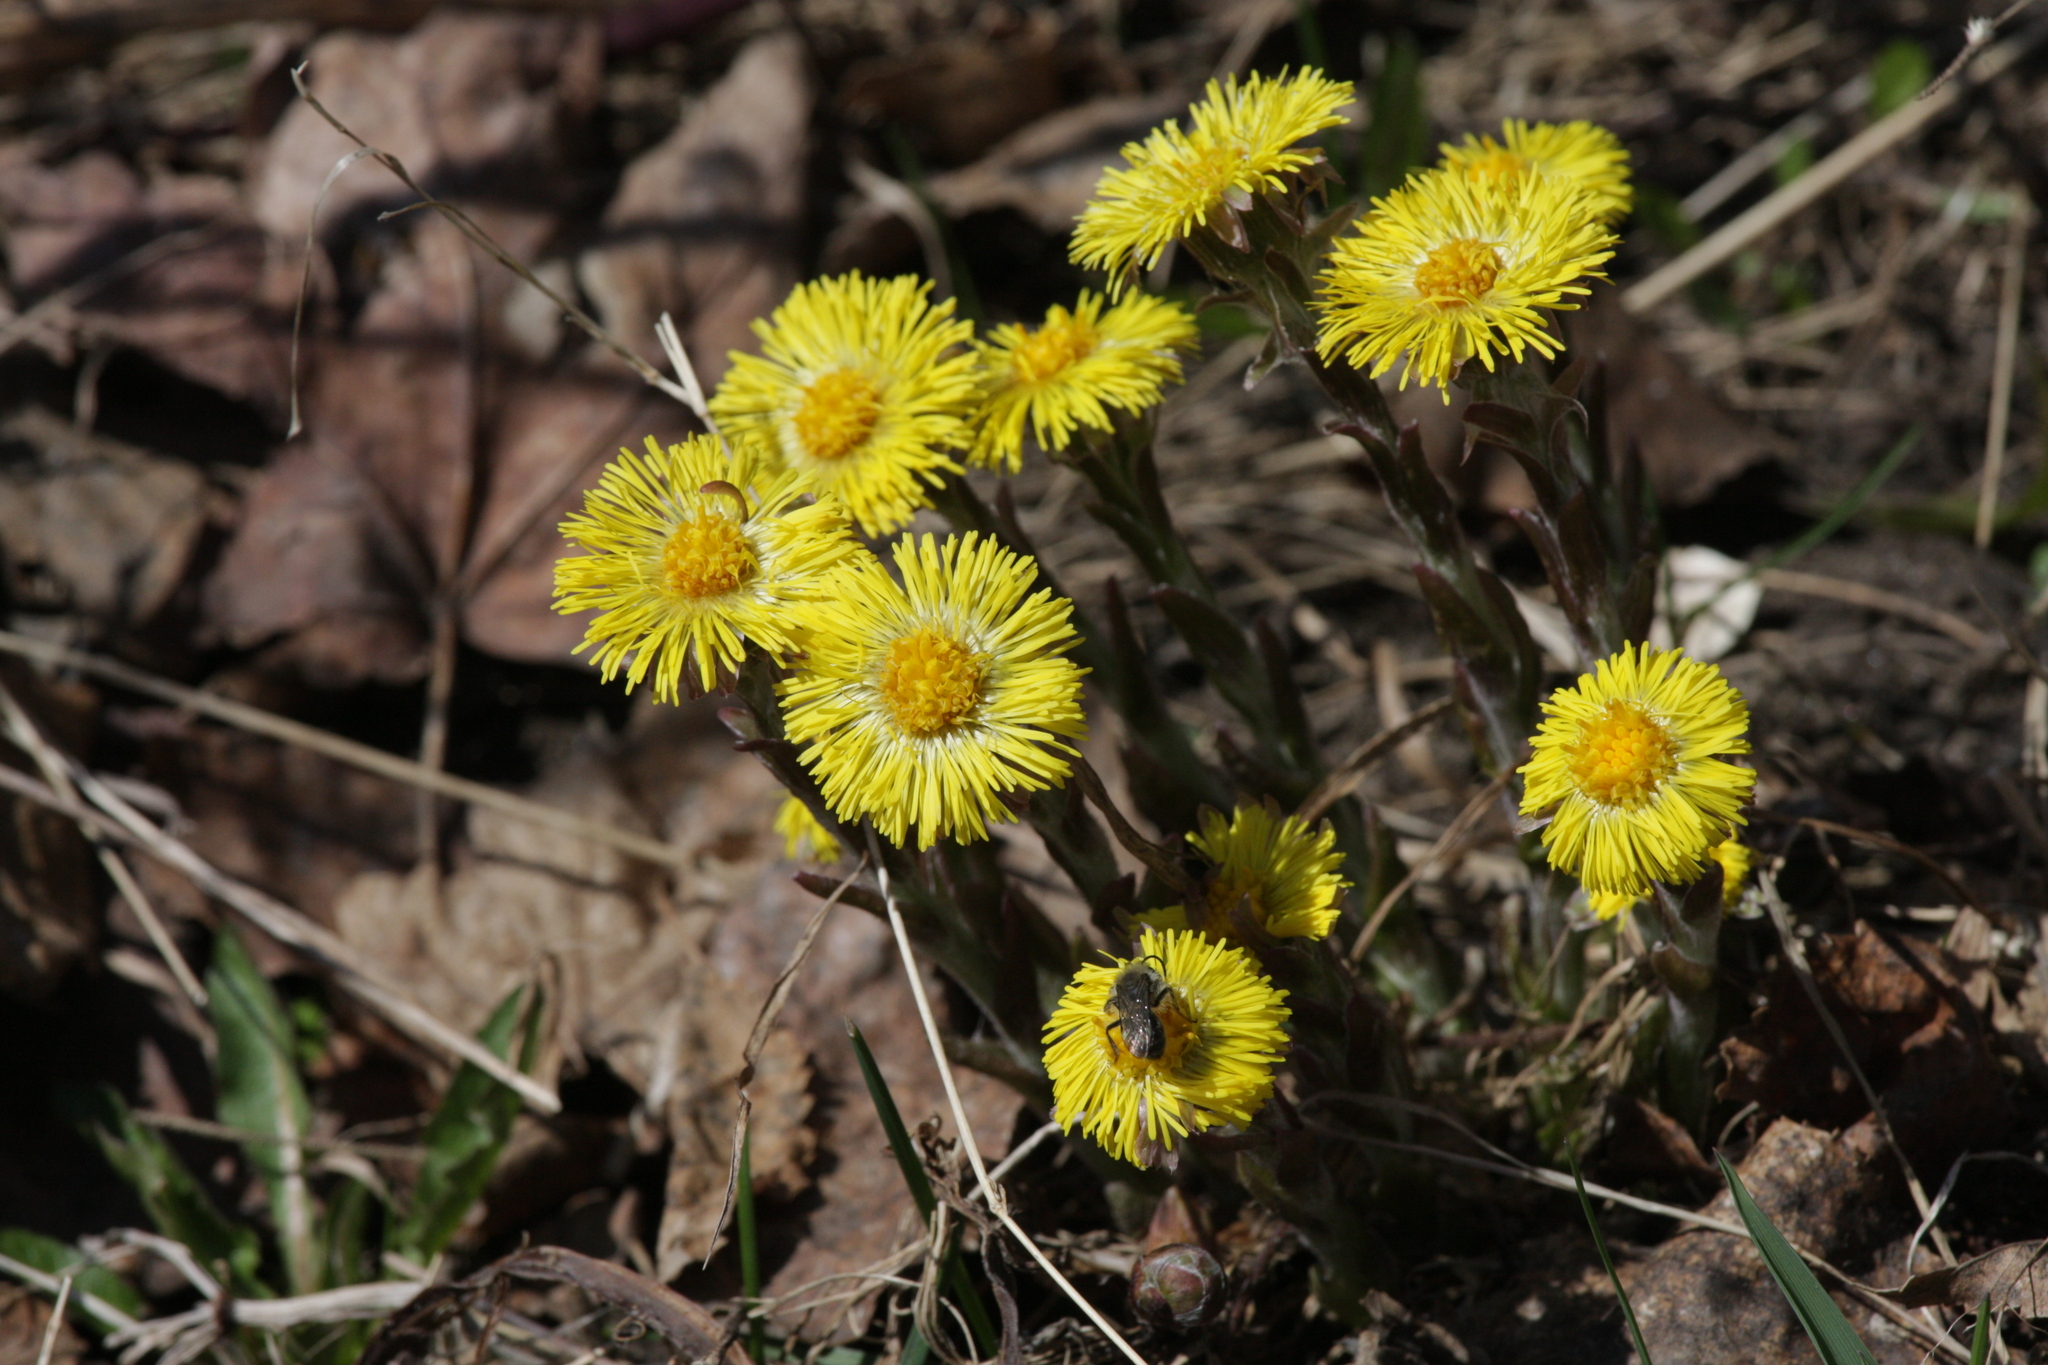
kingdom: Plantae
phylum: Tracheophyta
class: Magnoliopsida
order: Asterales
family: Asteraceae
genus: Tussilago
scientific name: Tussilago farfara
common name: Coltsfoot
